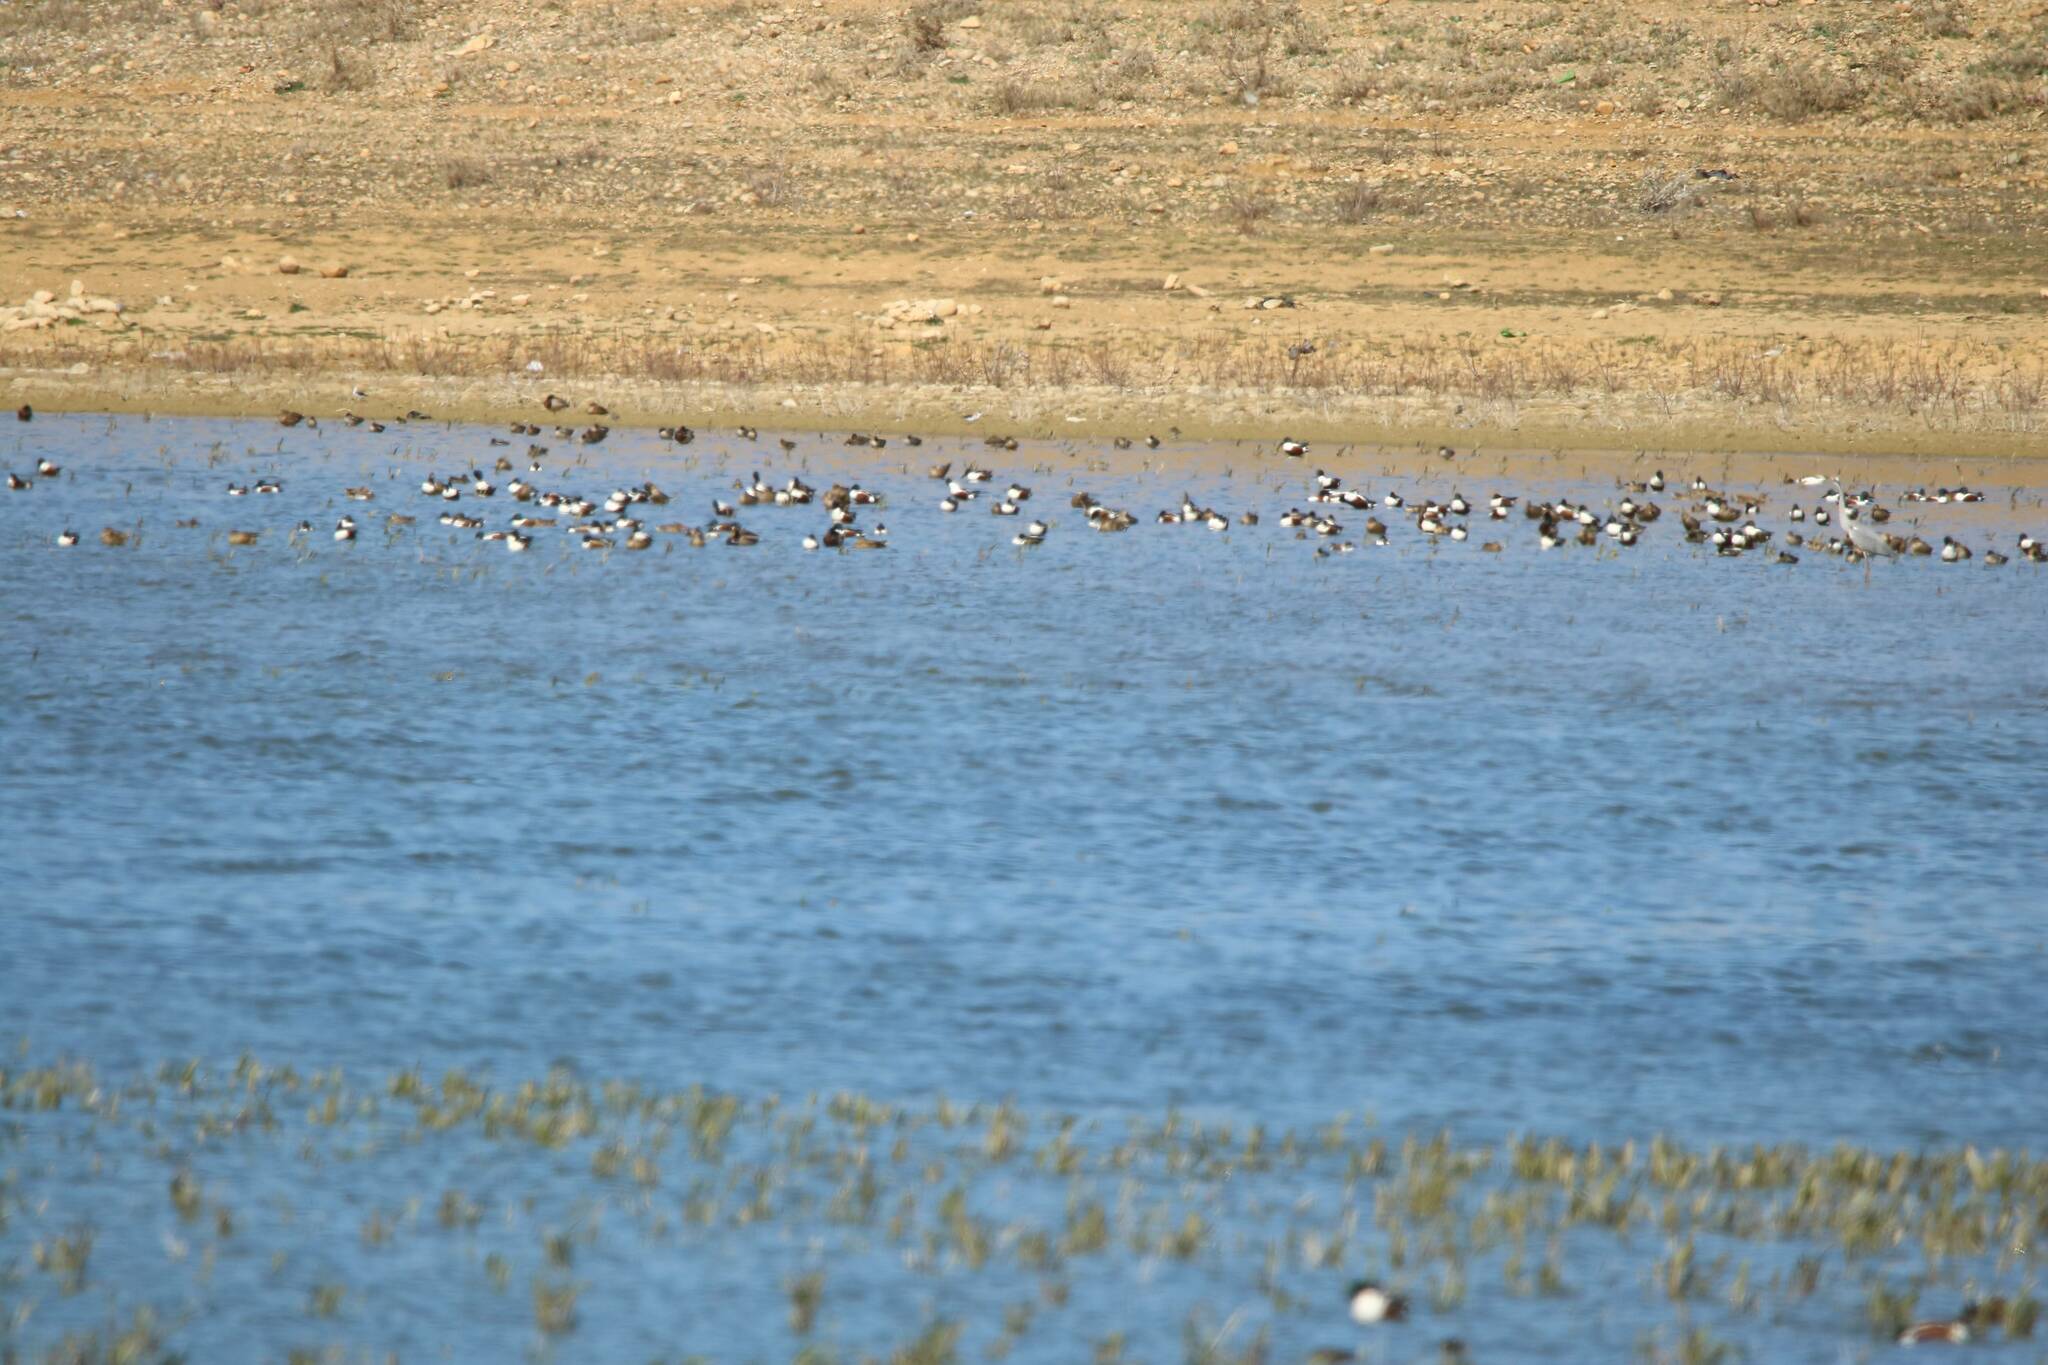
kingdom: Animalia
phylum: Chordata
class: Aves
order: Anseriformes
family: Anatidae
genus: Spatula
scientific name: Spatula clypeata
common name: Northern shoveler
